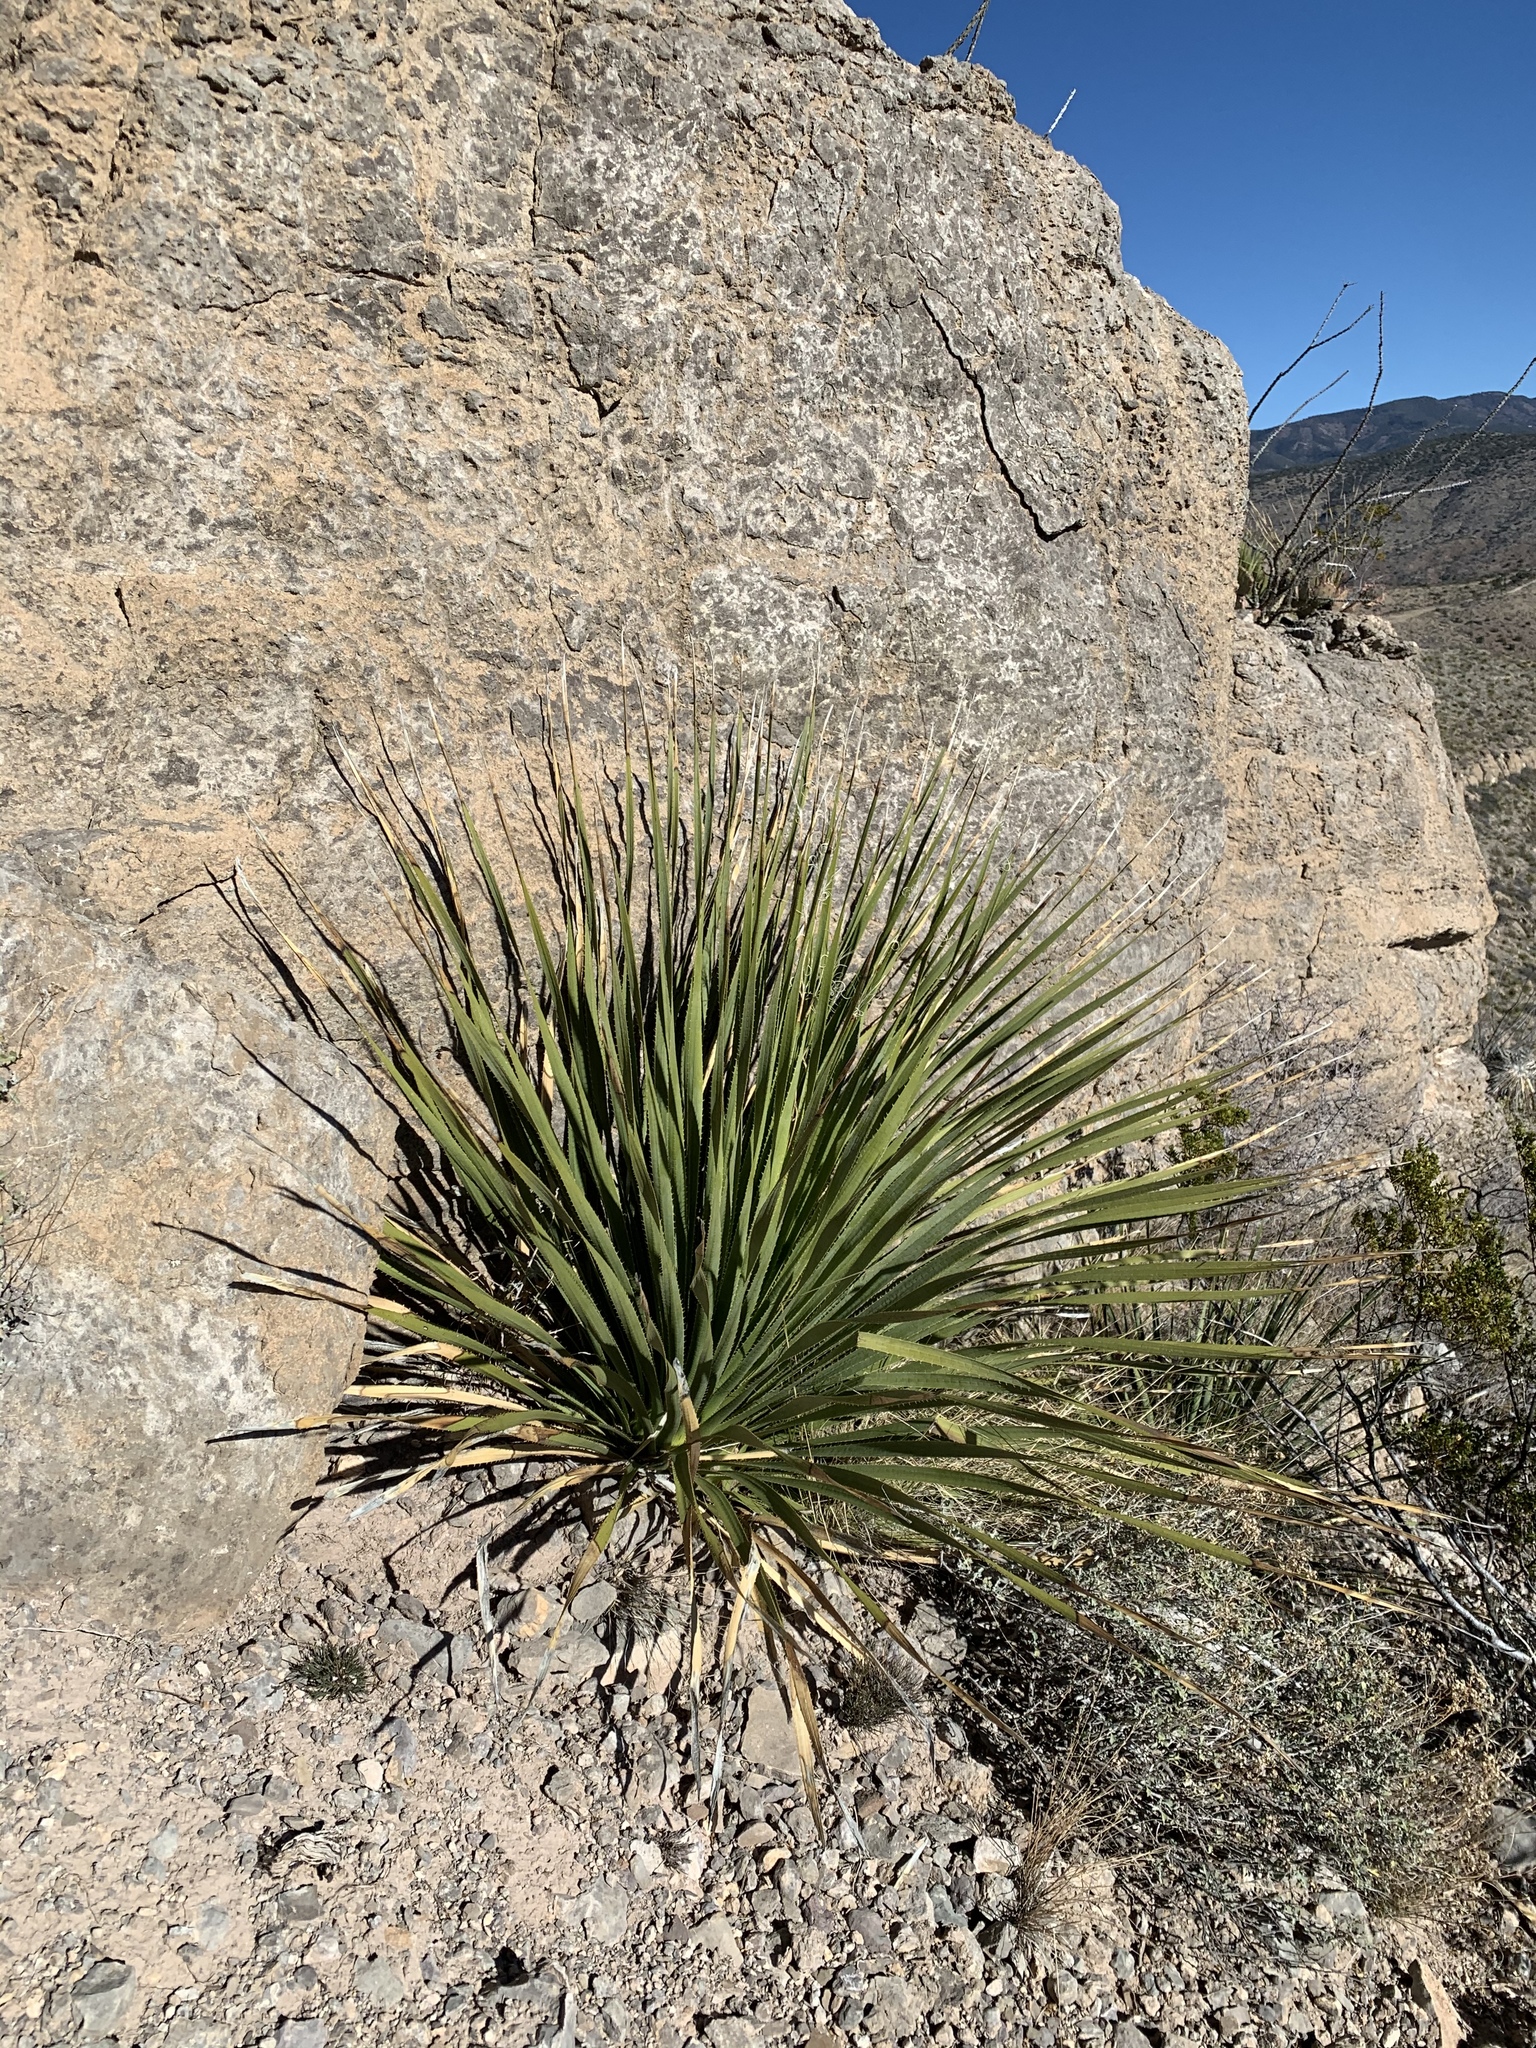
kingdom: Plantae
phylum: Tracheophyta
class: Liliopsida
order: Asparagales
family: Asparagaceae
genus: Dasylirion
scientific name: Dasylirion wheeleri
